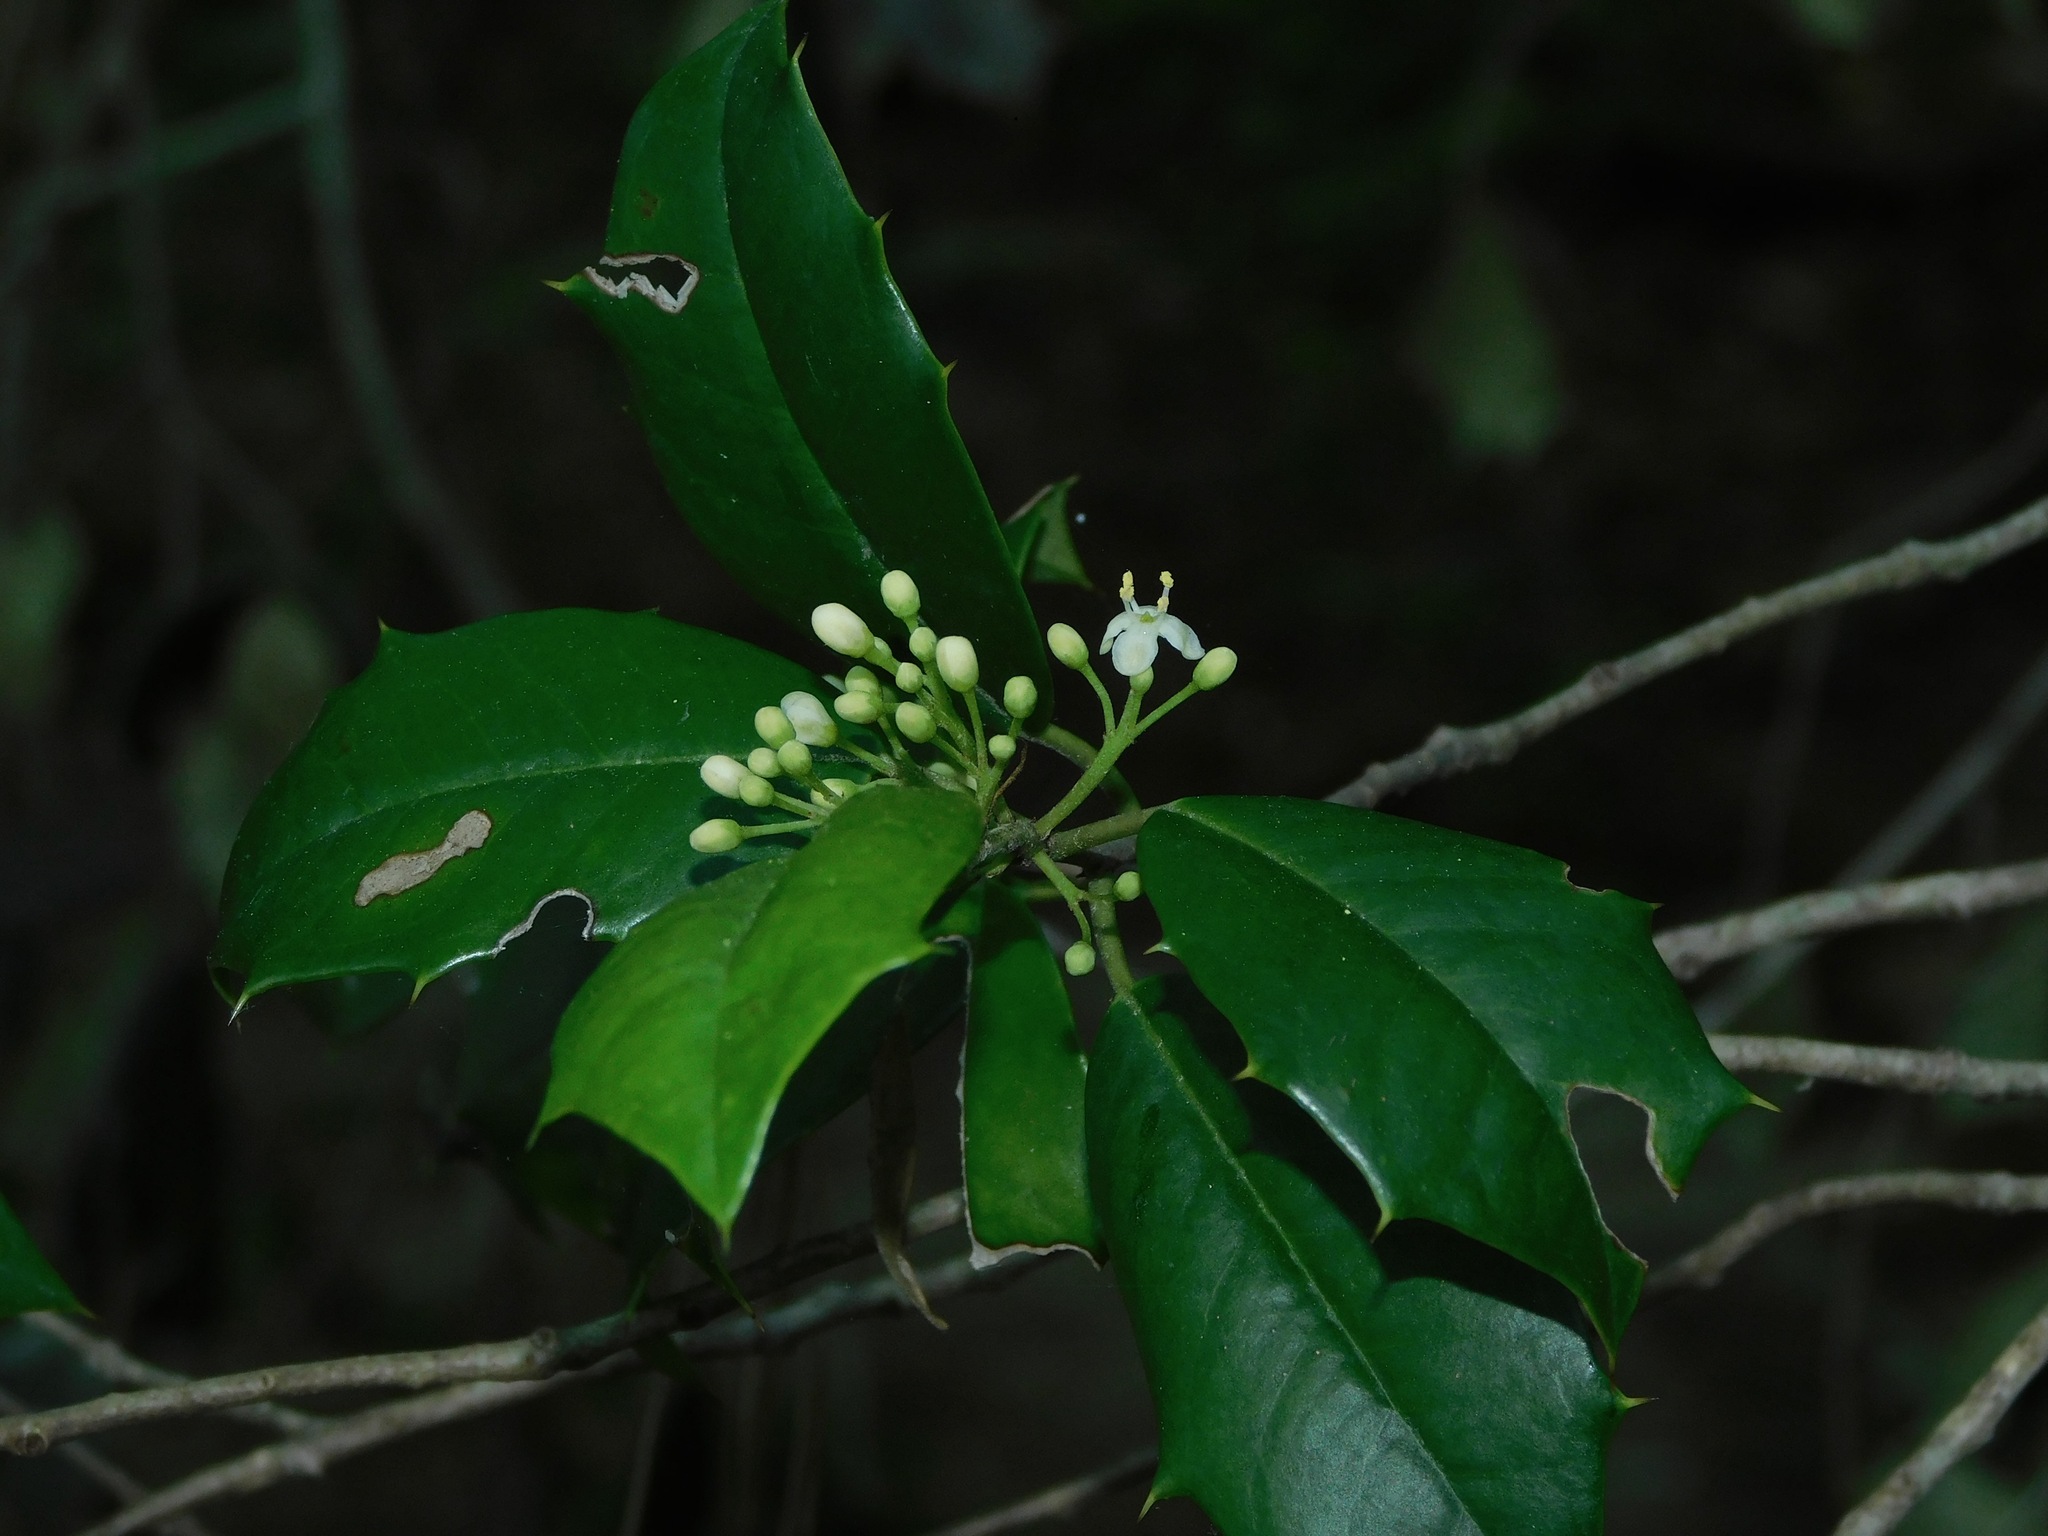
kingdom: Plantae
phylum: Tracheophyta
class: Magnoliopsida
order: Aquifoliales
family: Aquifoliaceae
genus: Ilex
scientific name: Ilex opaca
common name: American holly
